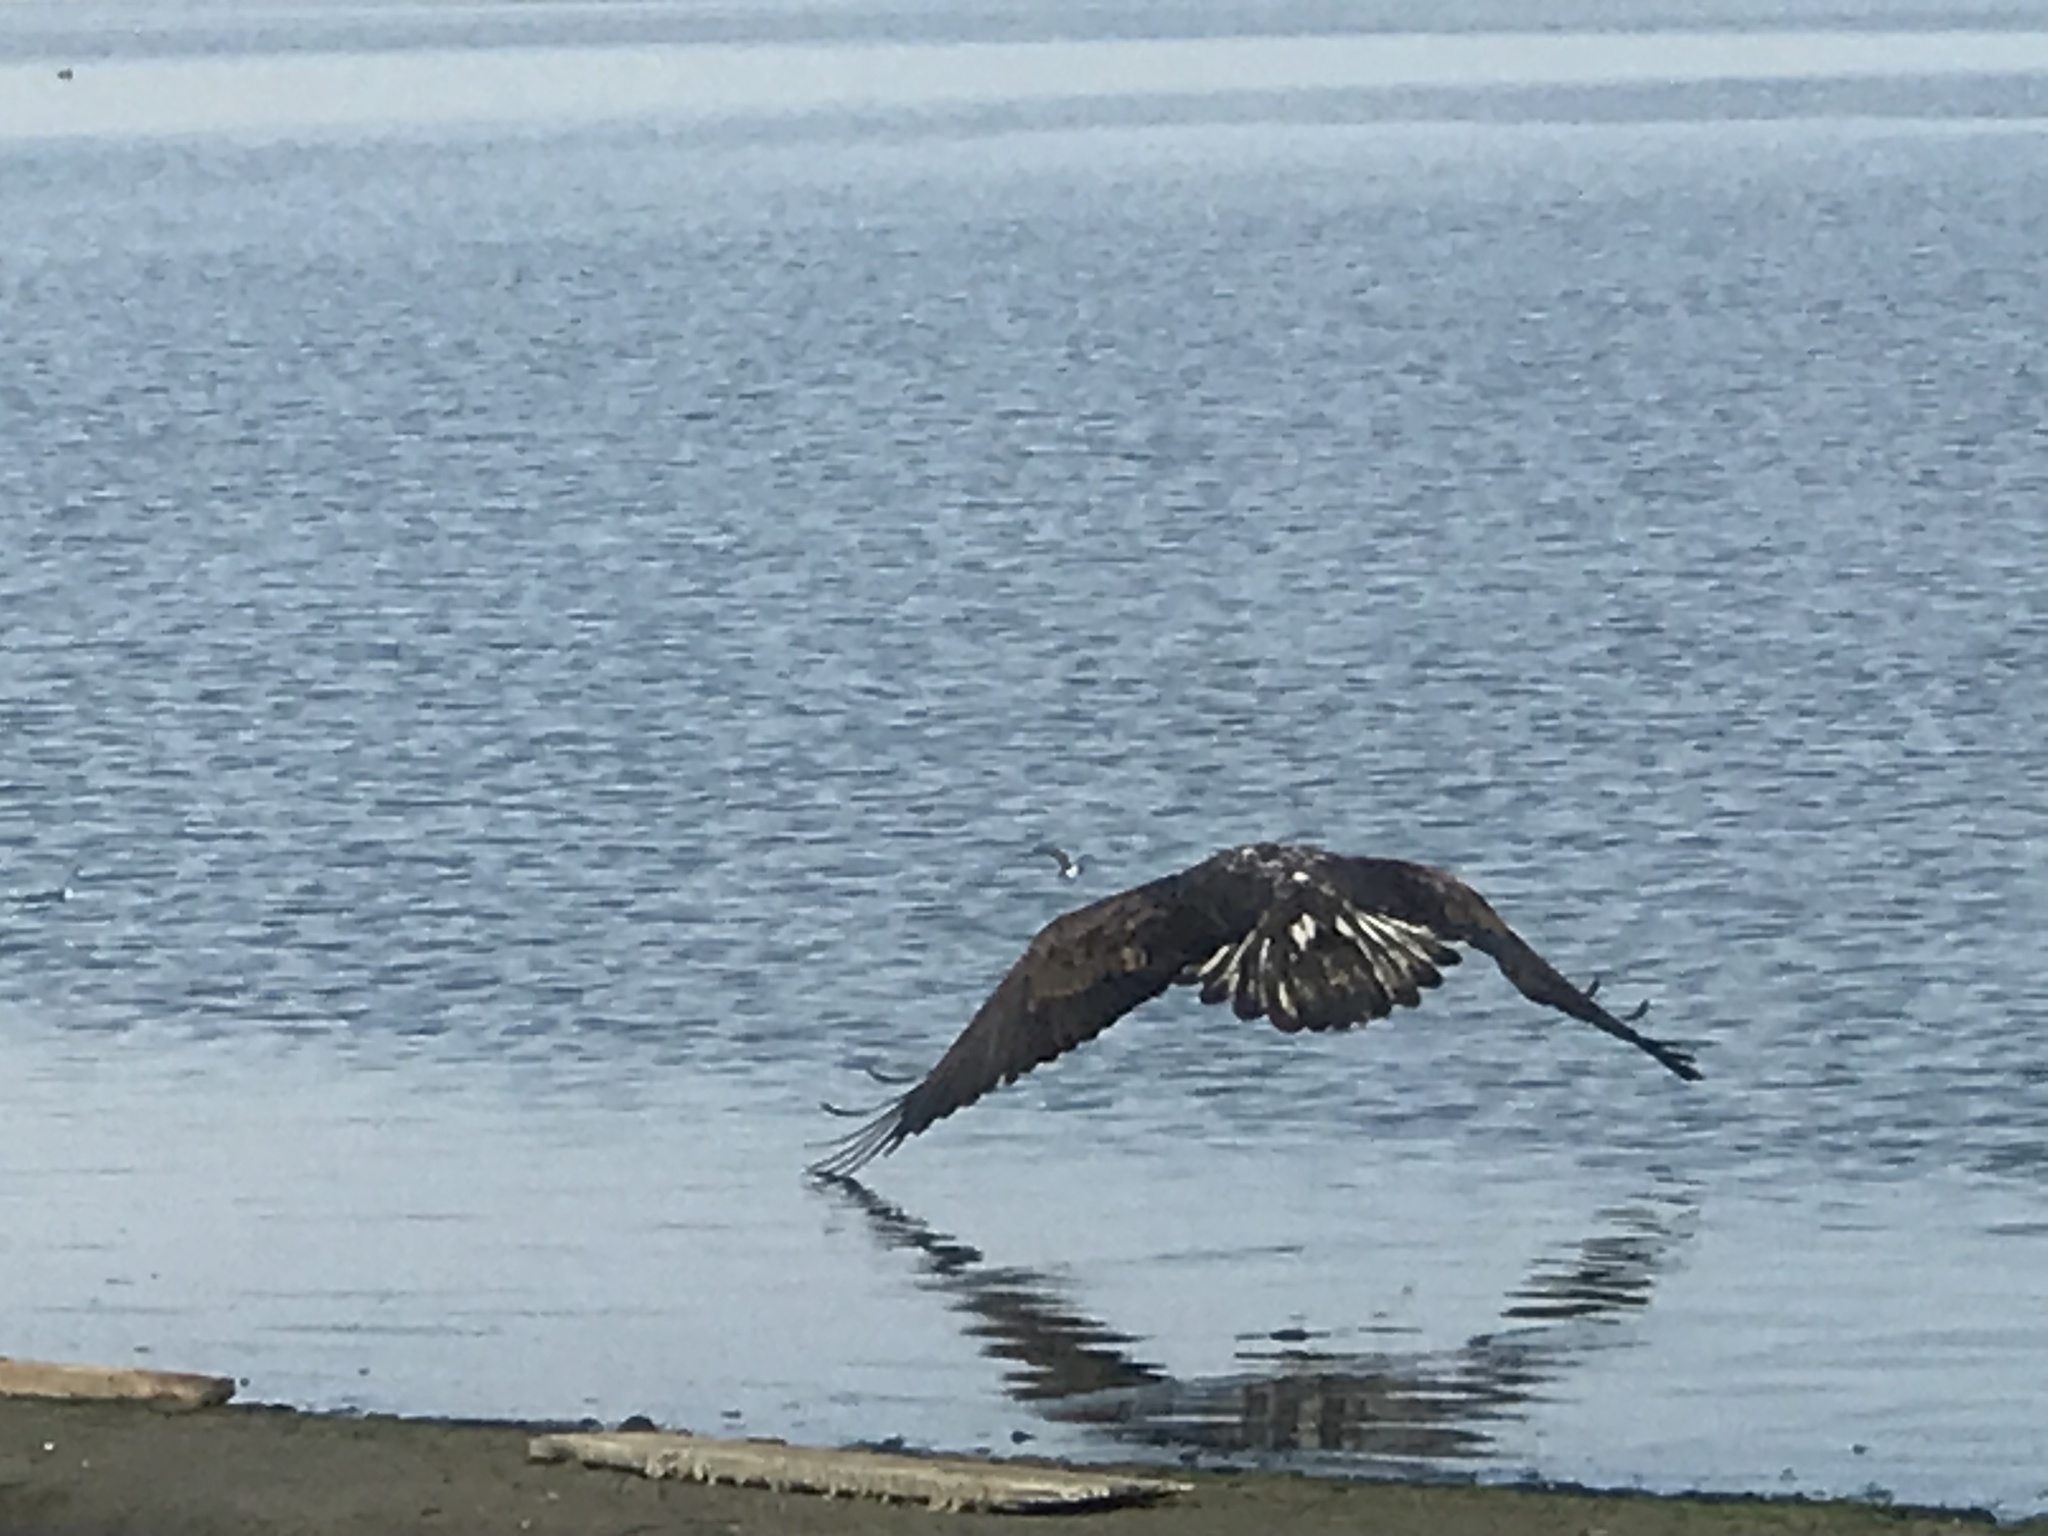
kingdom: Animalia
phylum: Chordata
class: Aves
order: Accipitriformes
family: Accipitridae
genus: Haliaeetus
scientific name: Haliaeetus leucocephalus
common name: Bald eagle
